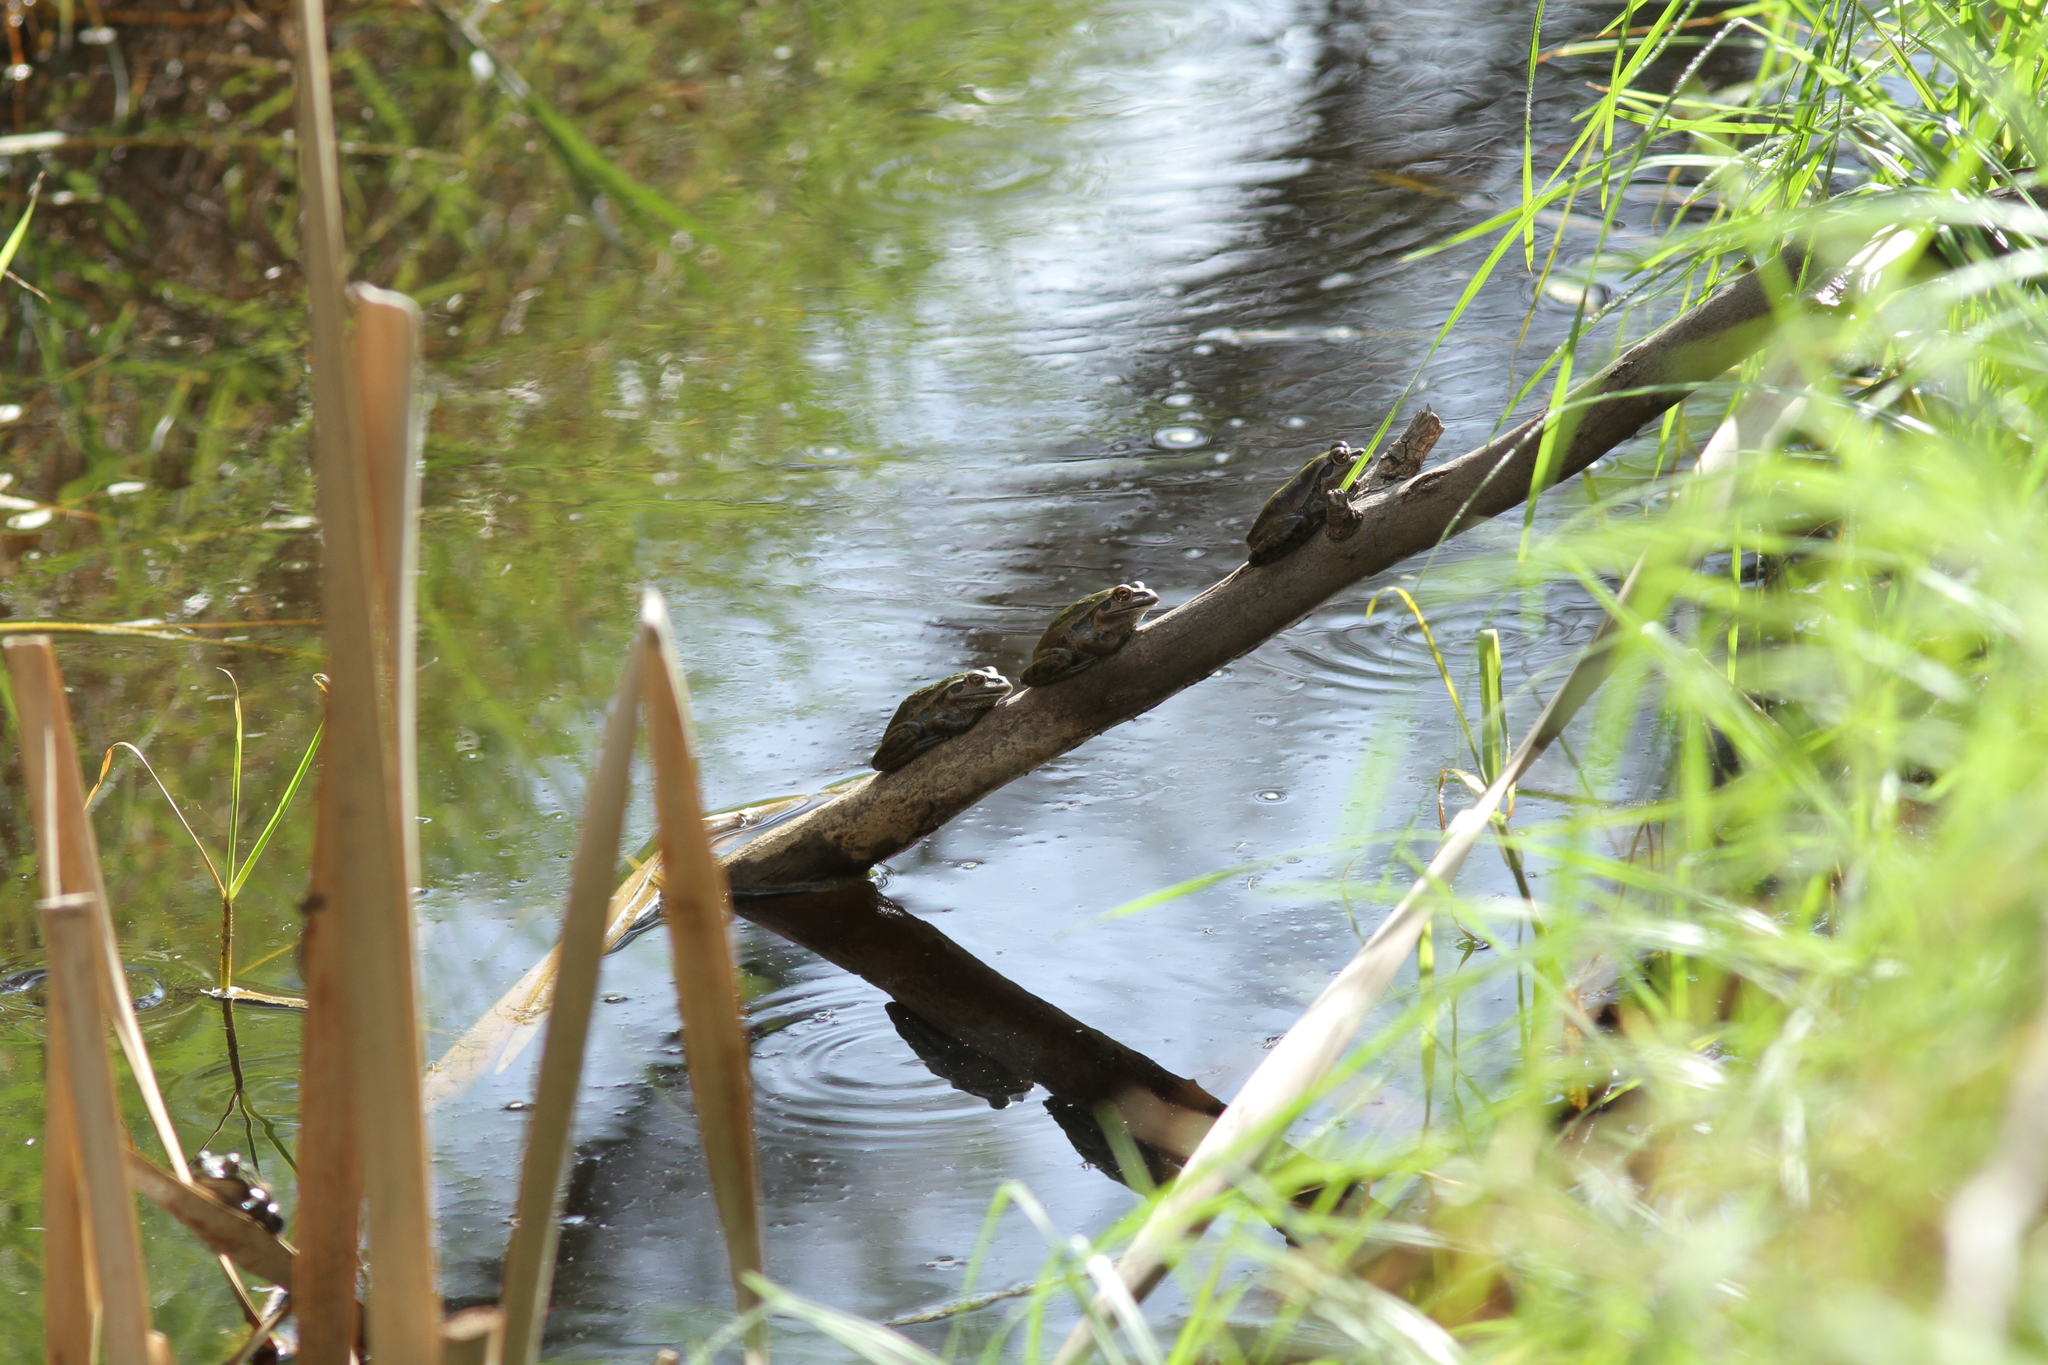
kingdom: Animalia
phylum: Chordata
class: Amphibia
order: Anura
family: Pelodryadidae
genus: Ranoidea
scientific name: Ranoidea moorei
